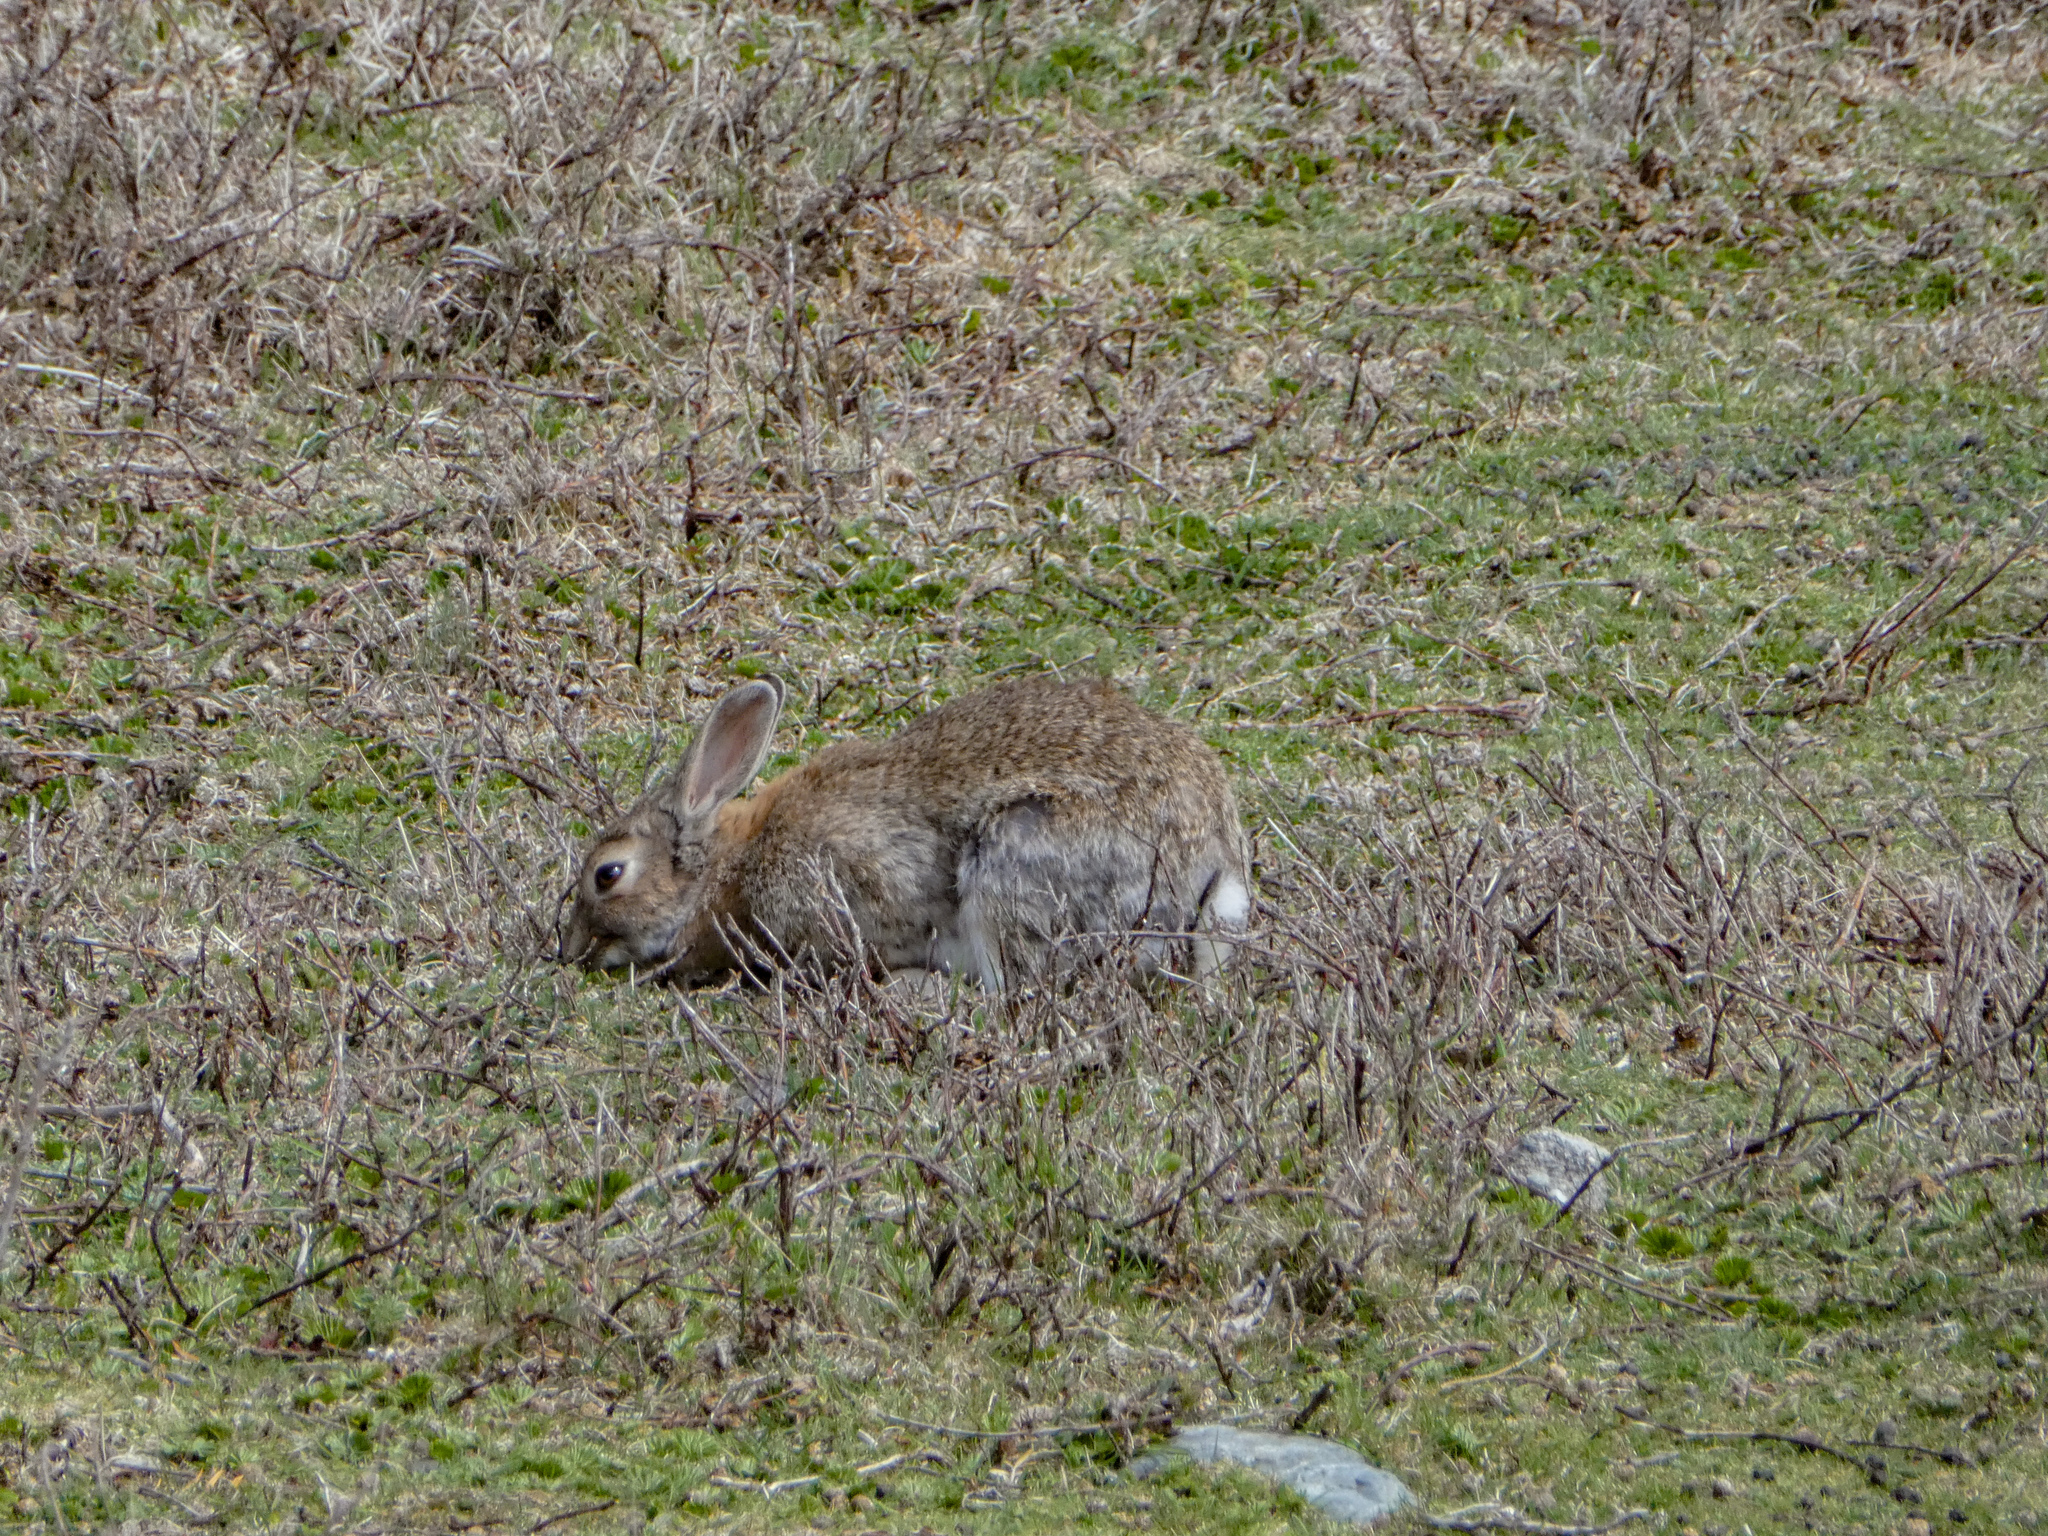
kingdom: Animalia
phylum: Chordata
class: Mammalia
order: Lagomorpha
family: Leporidae
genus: Oryctolagus
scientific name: Oryctolagus cuniculus
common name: European rabbit
